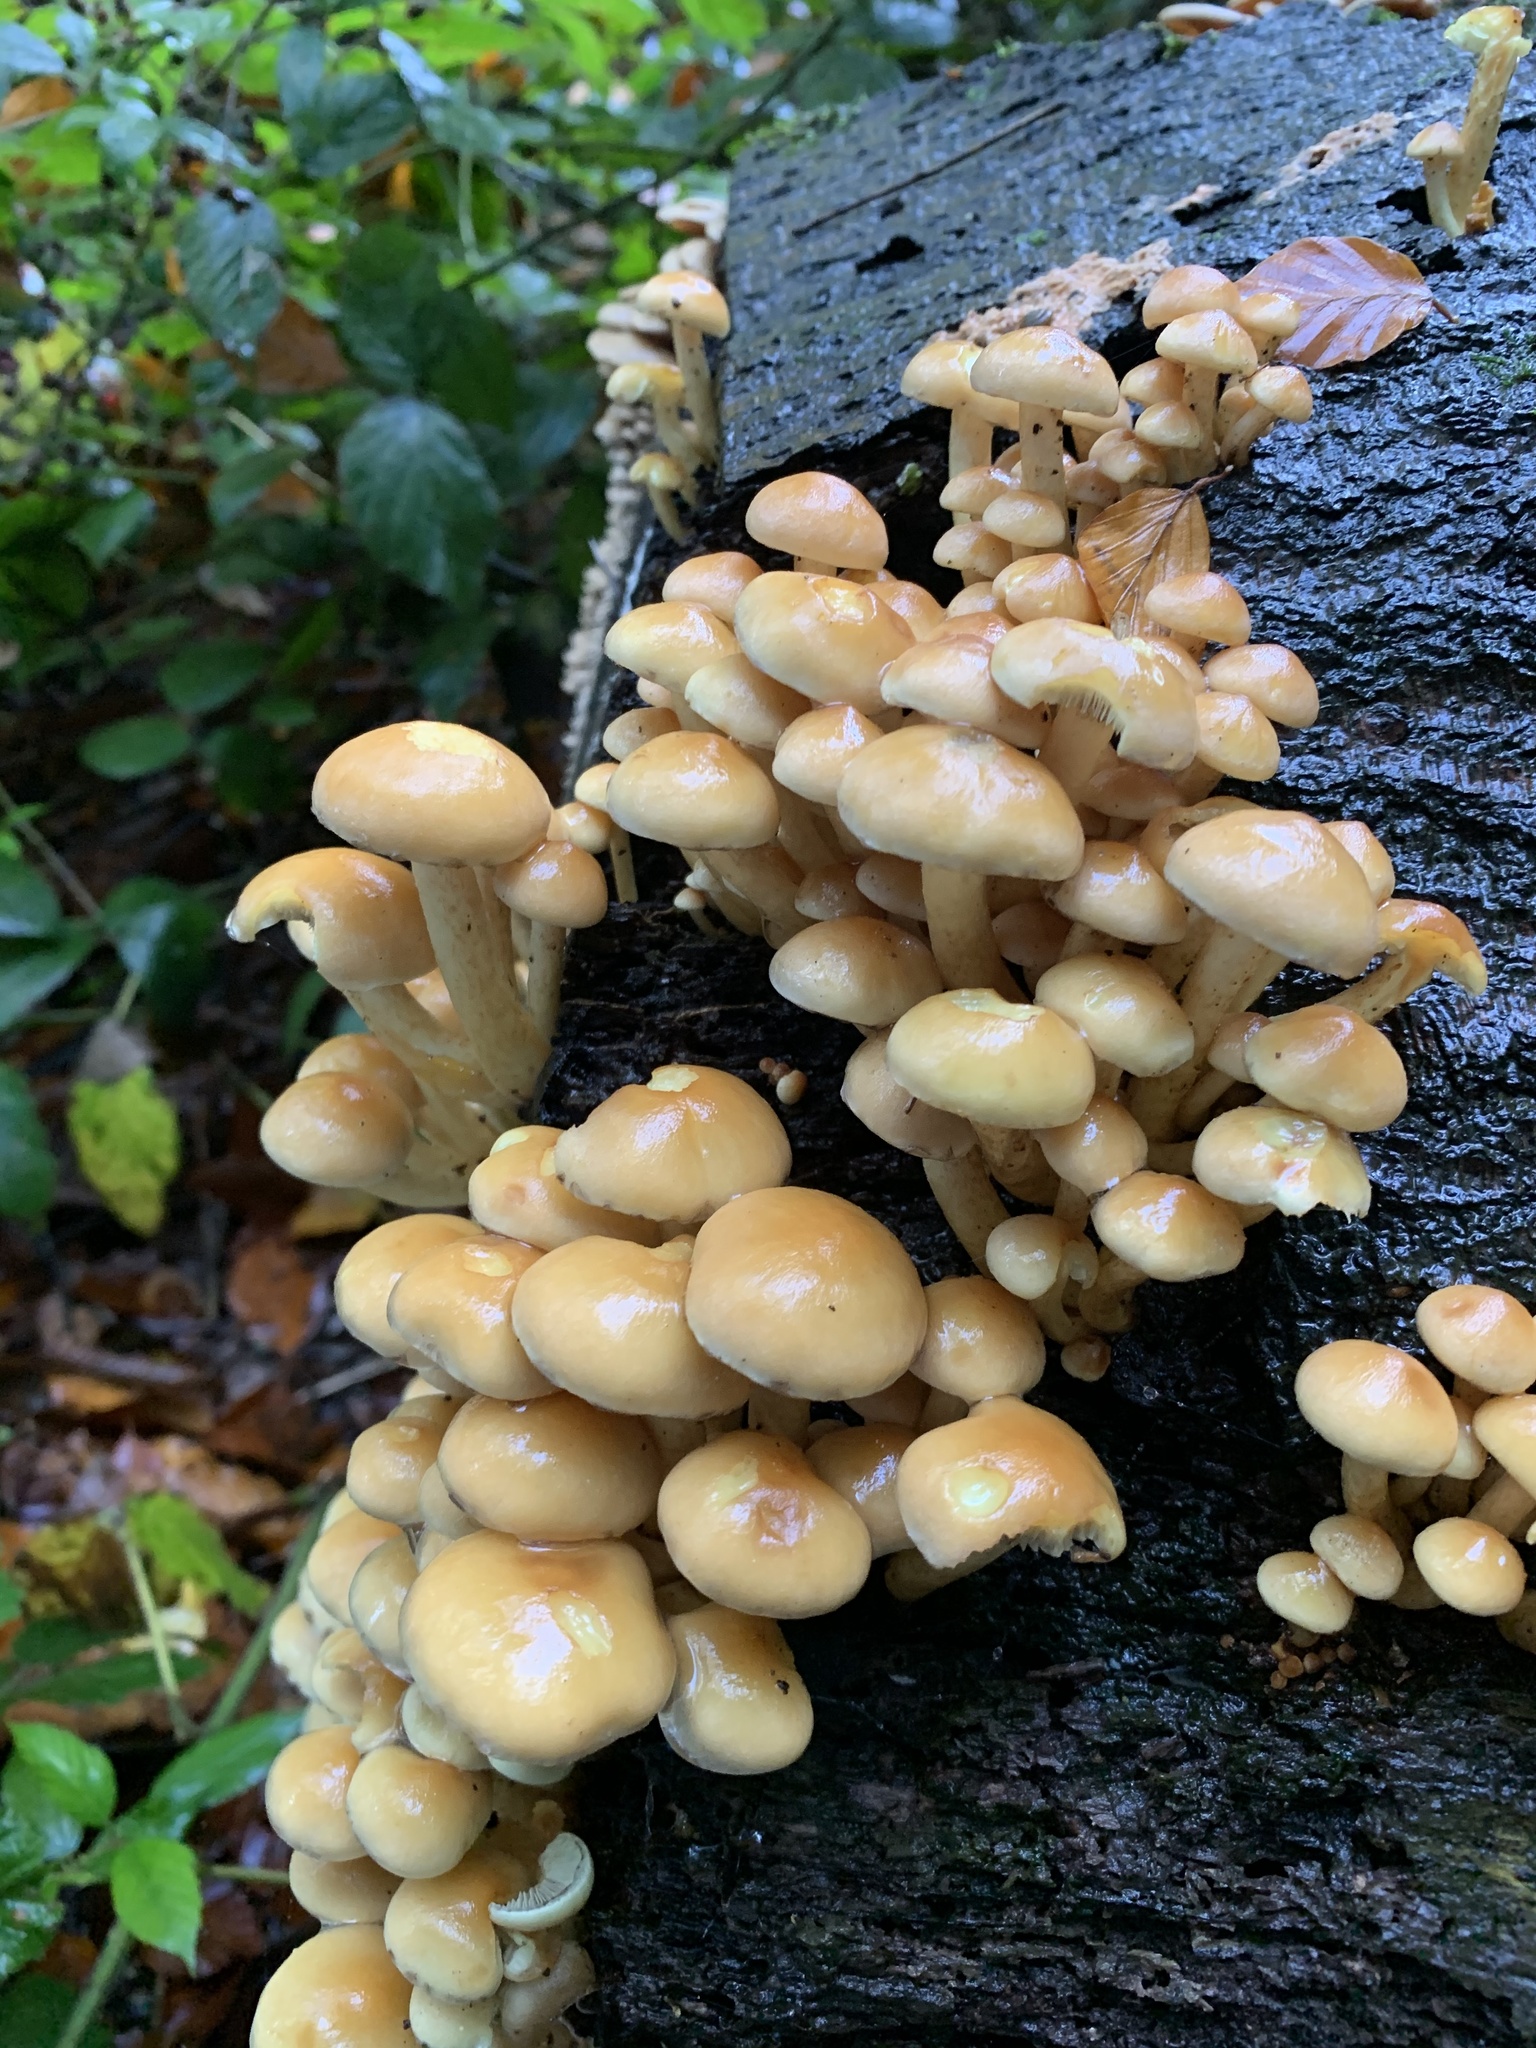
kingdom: Fungi
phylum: Basidiomycota
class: Agaricomycetes
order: Agaricales
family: Strophariaceae
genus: Hypholoma
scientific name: Hypholoma fasciculare
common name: Sulphur tuft
